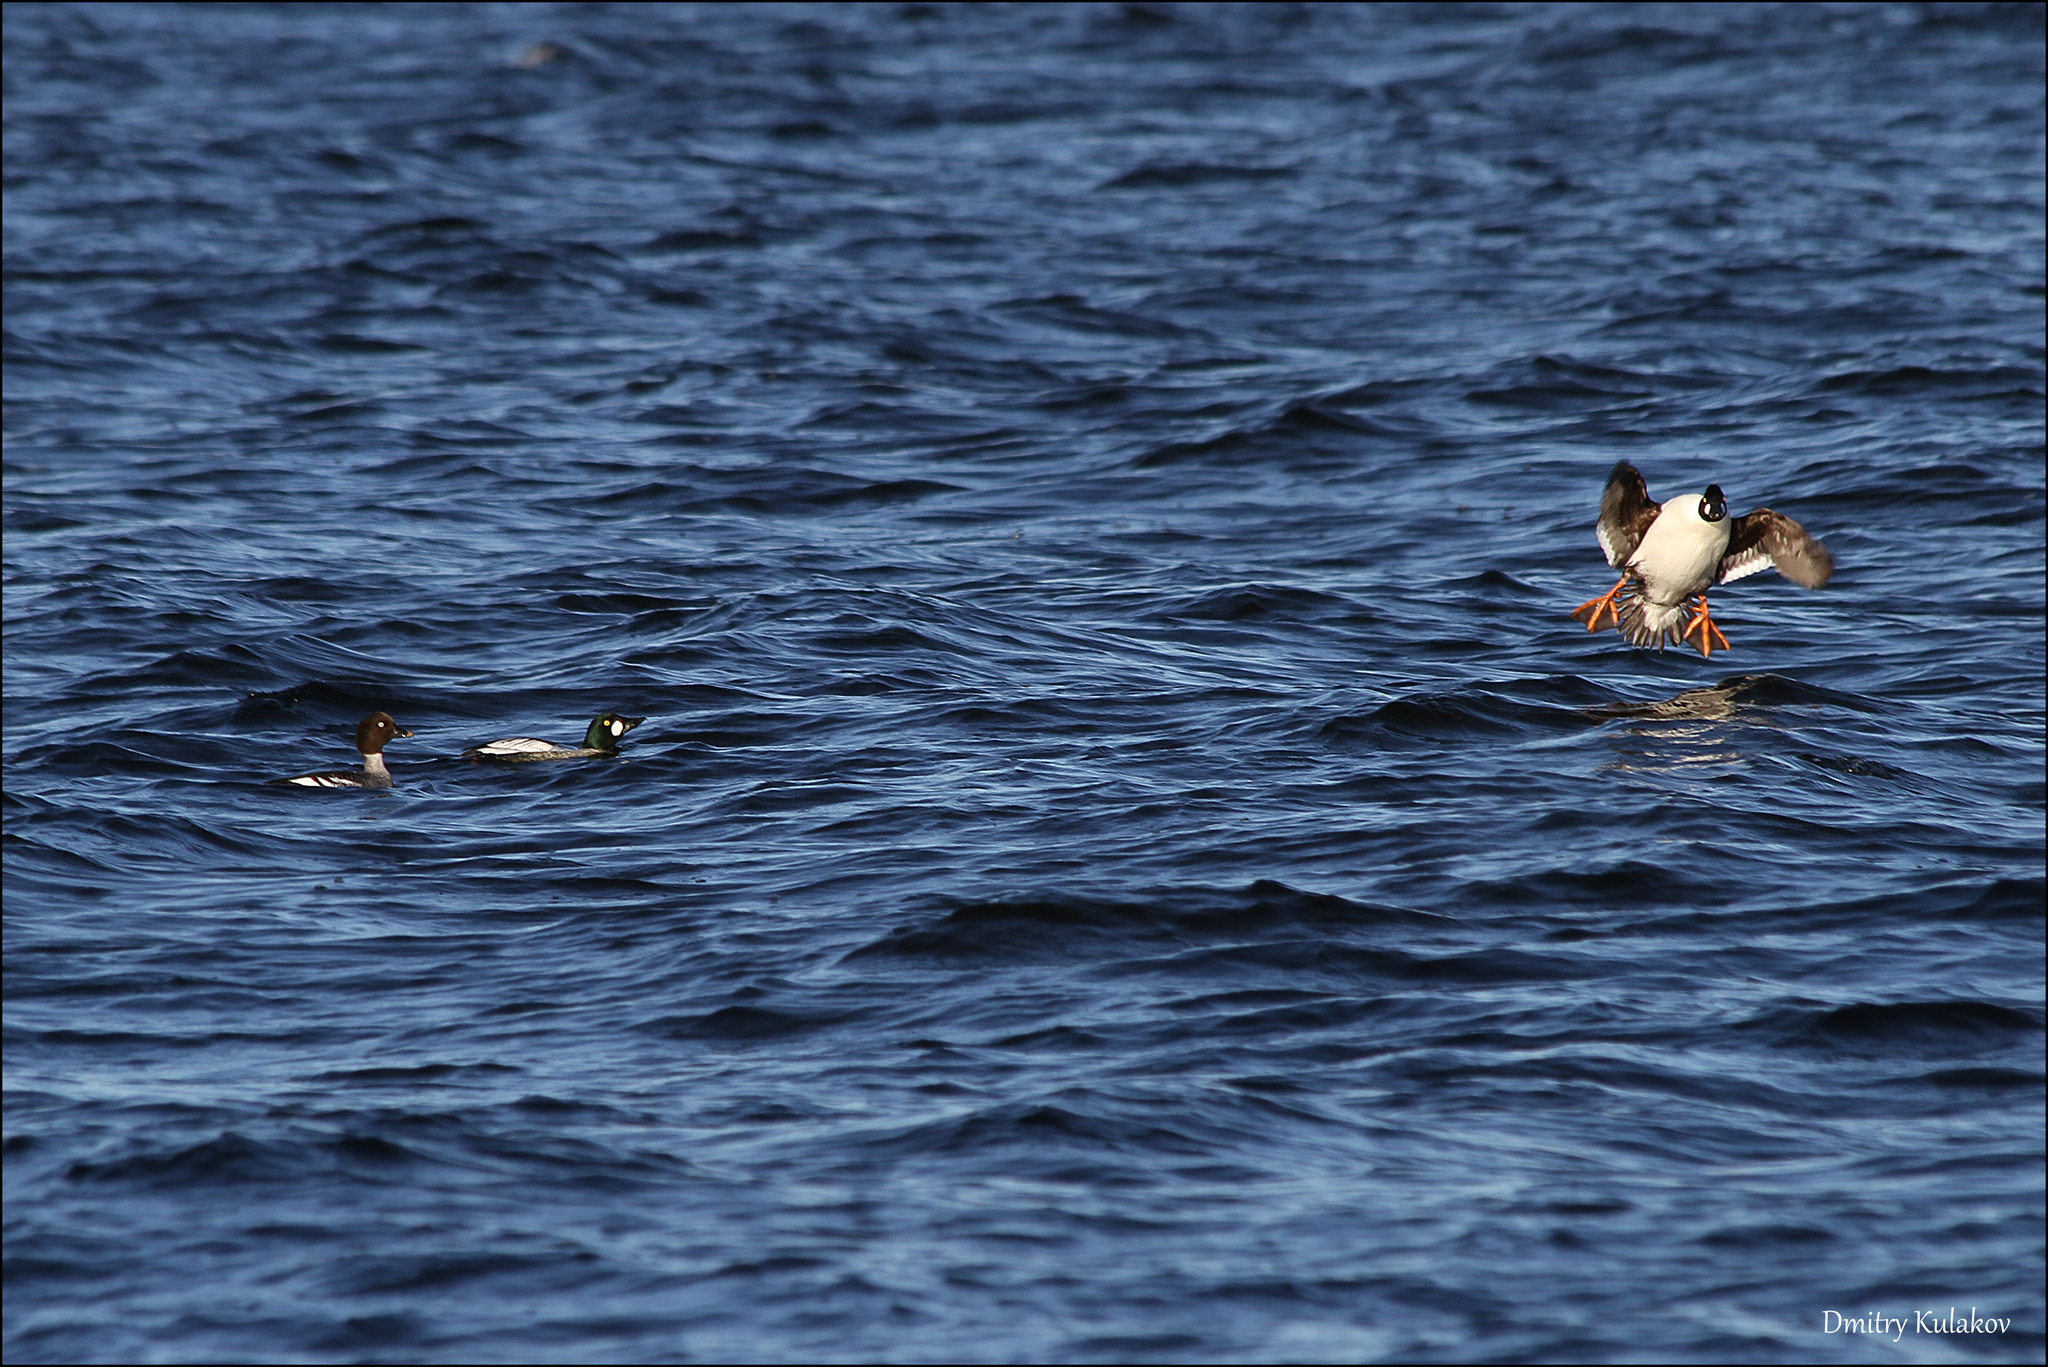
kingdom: Animalia
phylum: Chordata
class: Aves
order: Anseriformes
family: Anatidae
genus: Bucephala
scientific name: Bucephala clangula
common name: Common goldeneye
